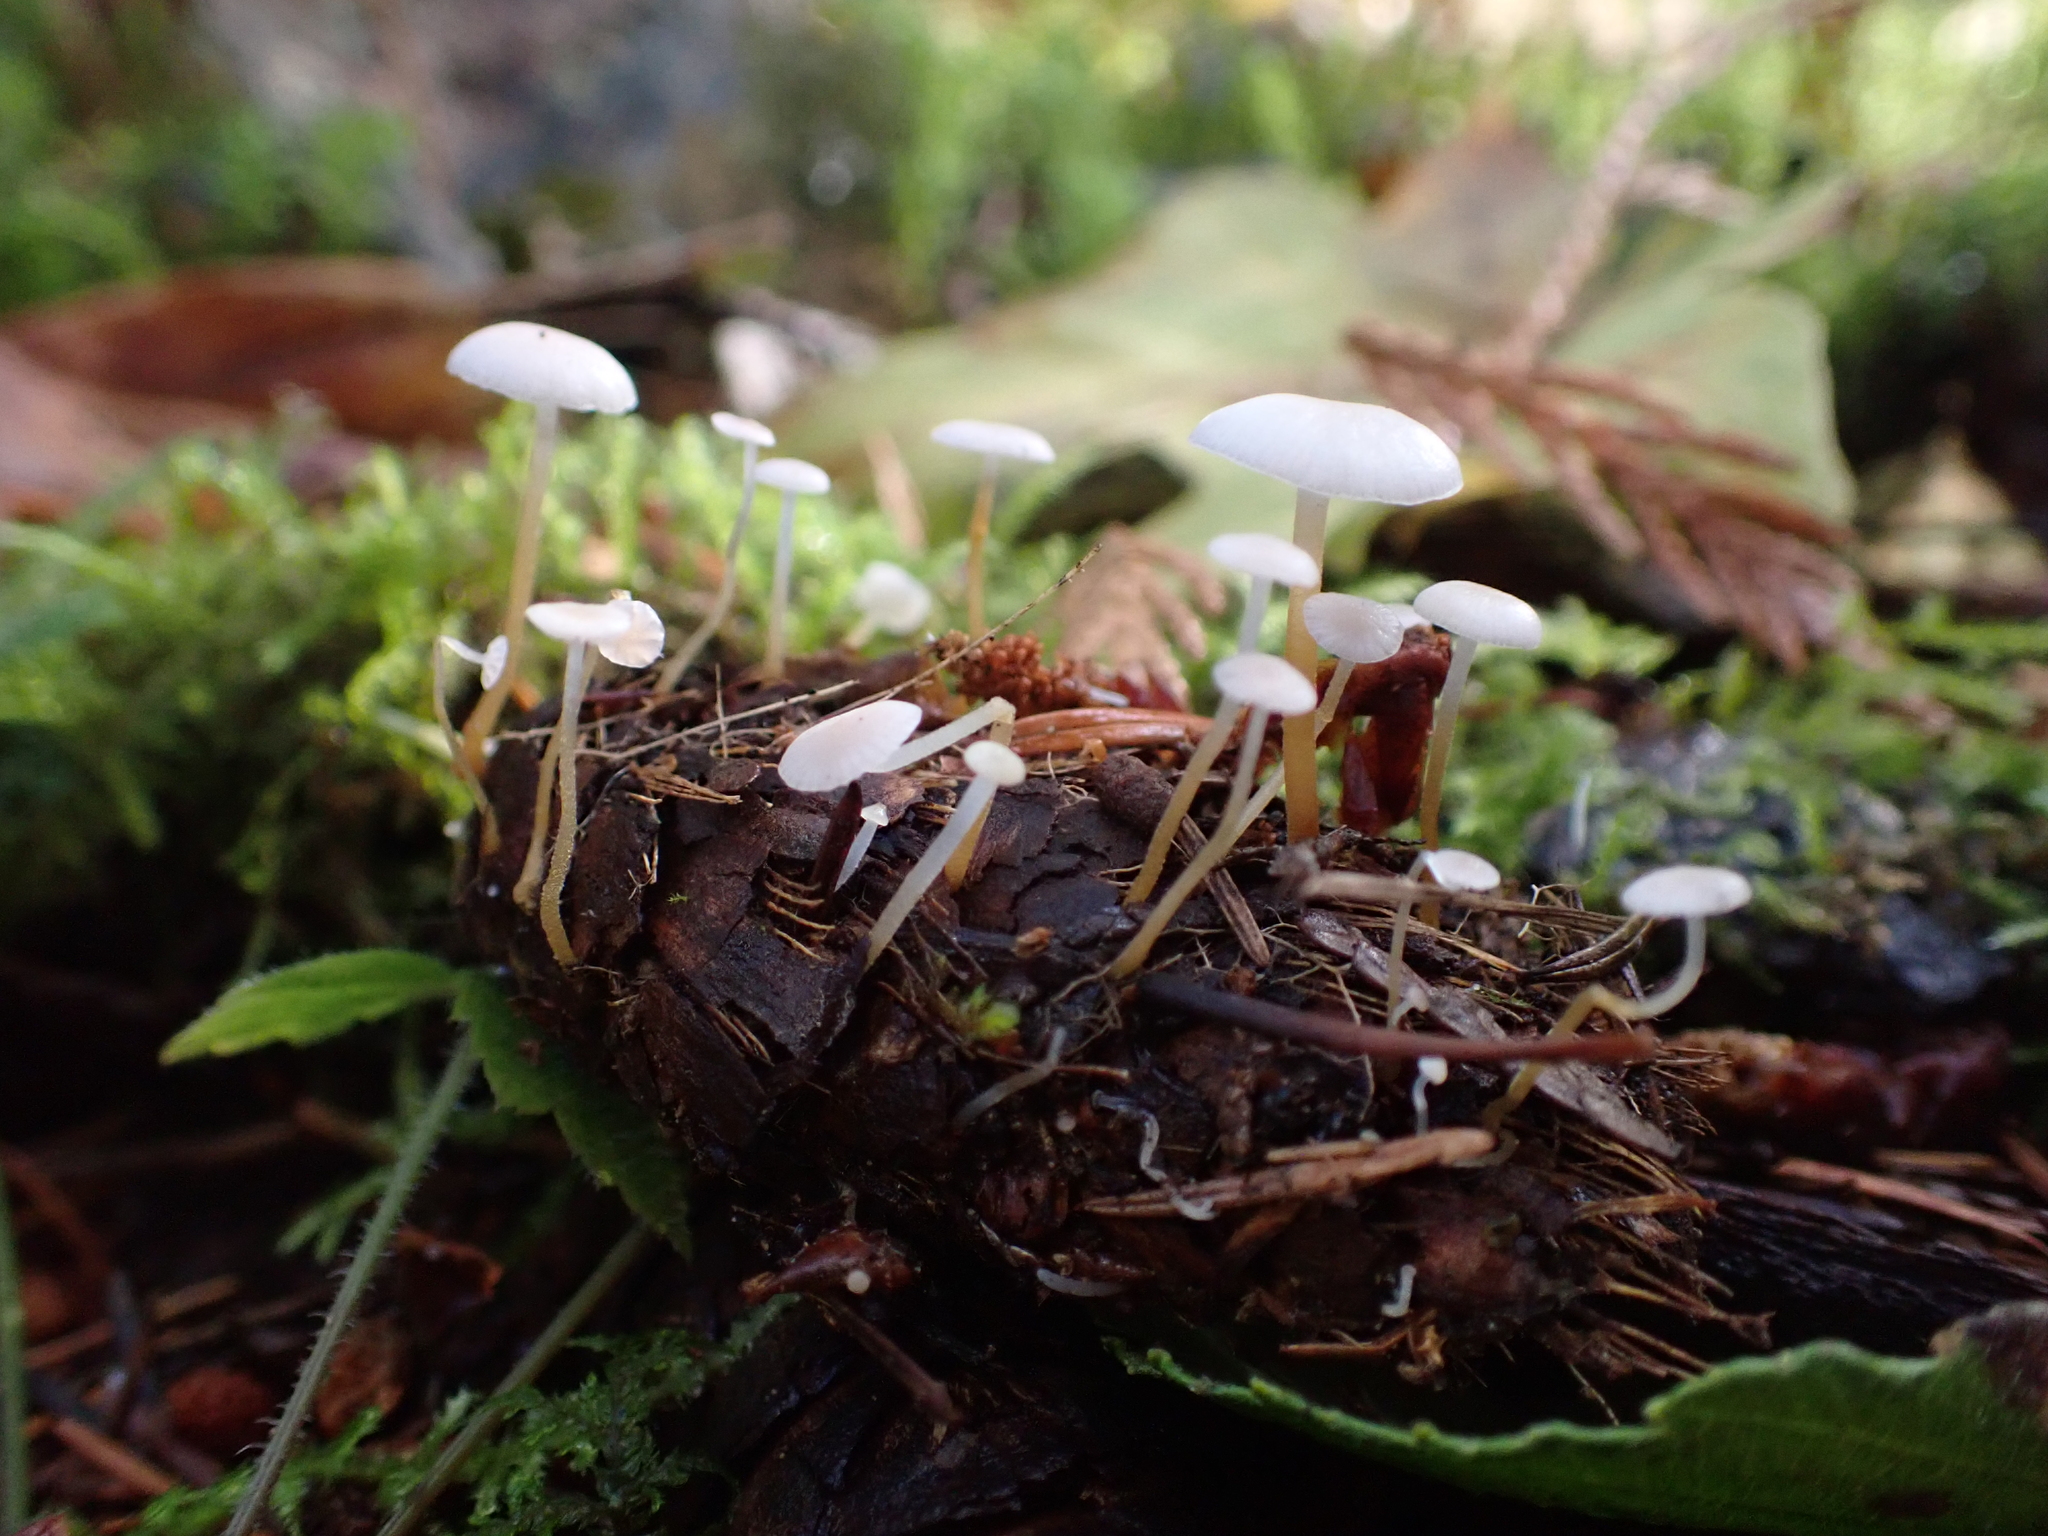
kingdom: Fungi
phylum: Basidiomycota
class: Agaricomycetes
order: Agaricales
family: Physalacriaceae
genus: Strobilurus
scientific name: Strobilurus trullisatus
